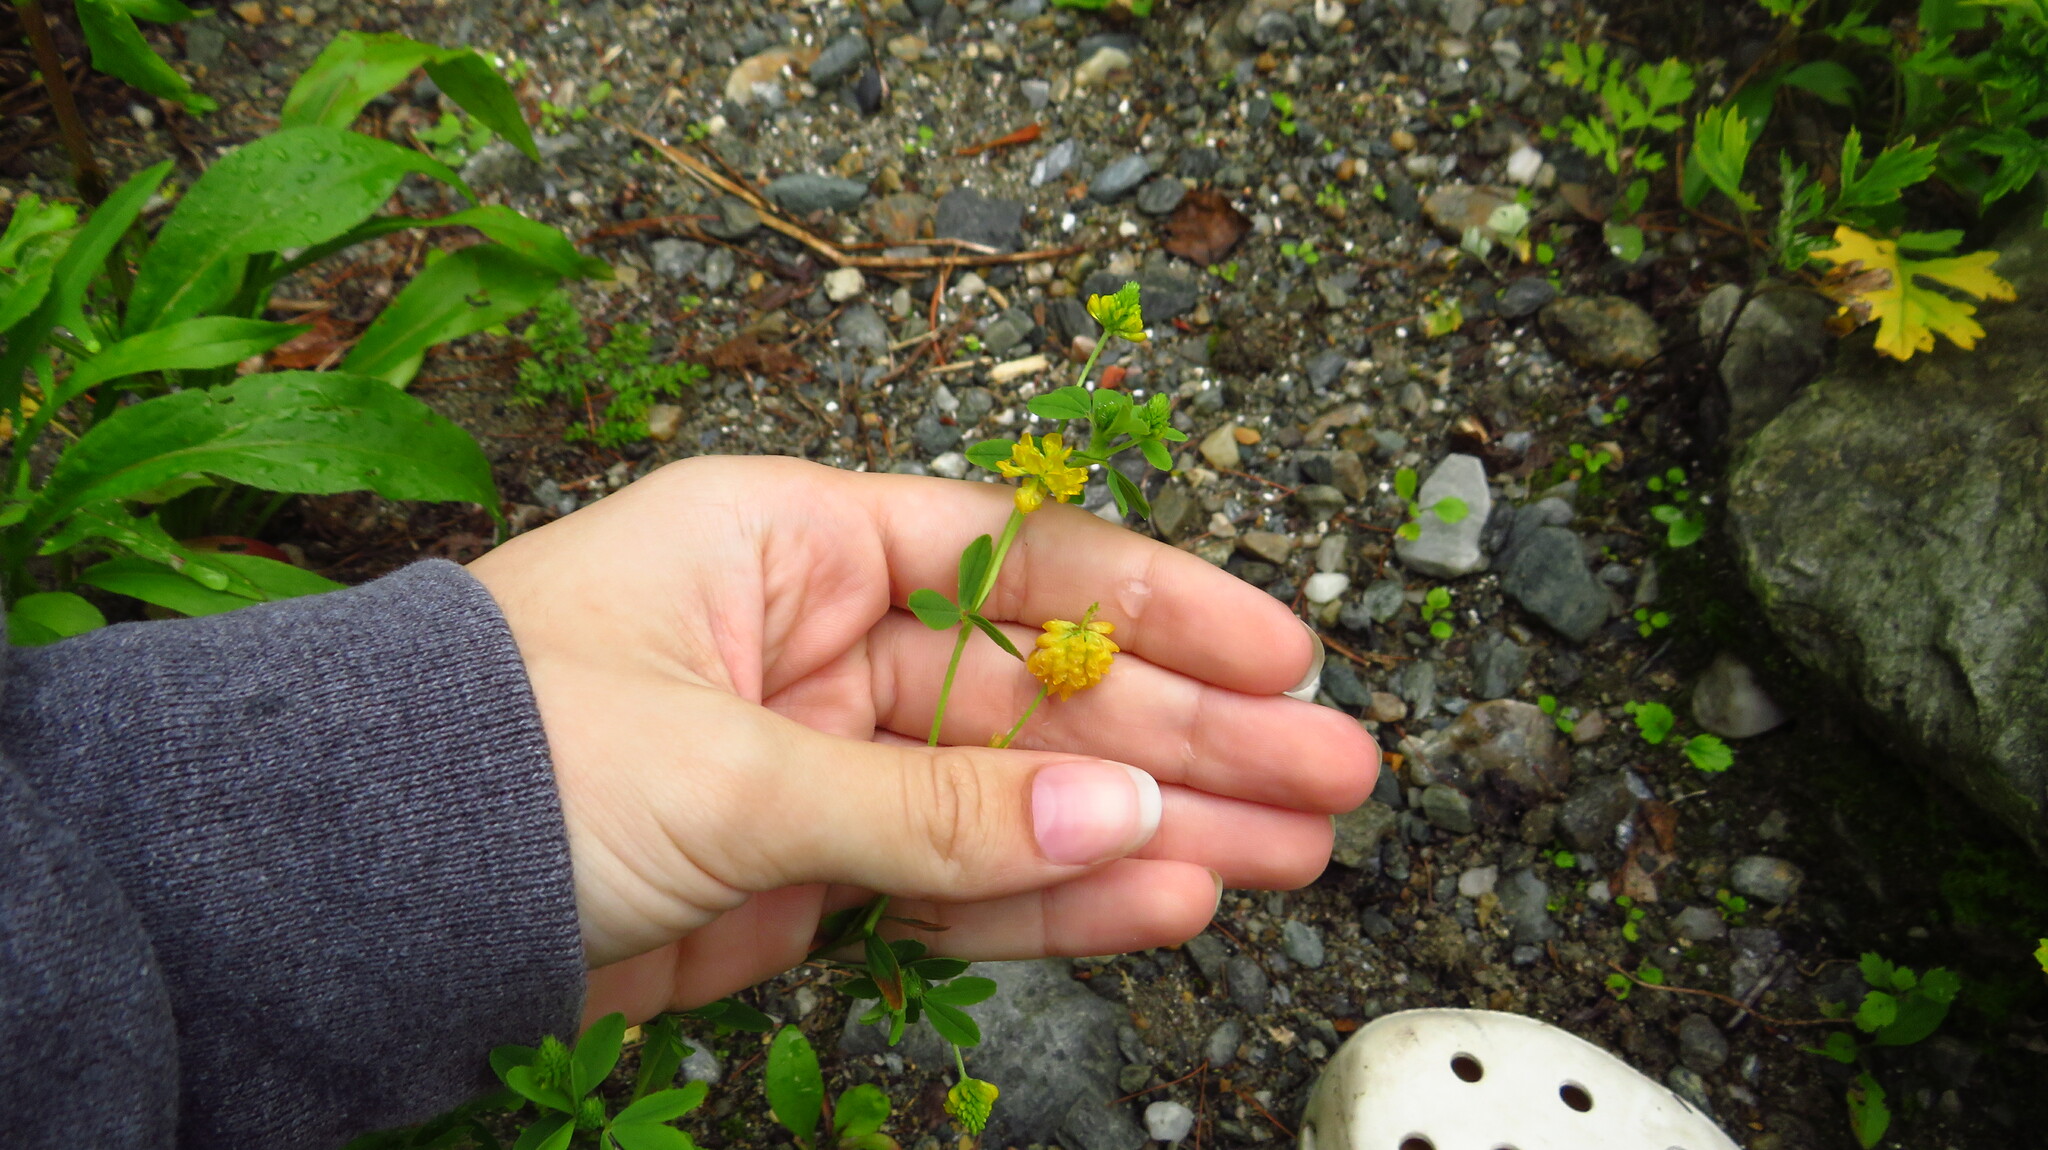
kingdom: Plantae
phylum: Tracheophyta
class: Magnoliopsida
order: Fabales
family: Fabaceae
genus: Trifolium
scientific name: Trifolium aureum
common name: Golden clover
